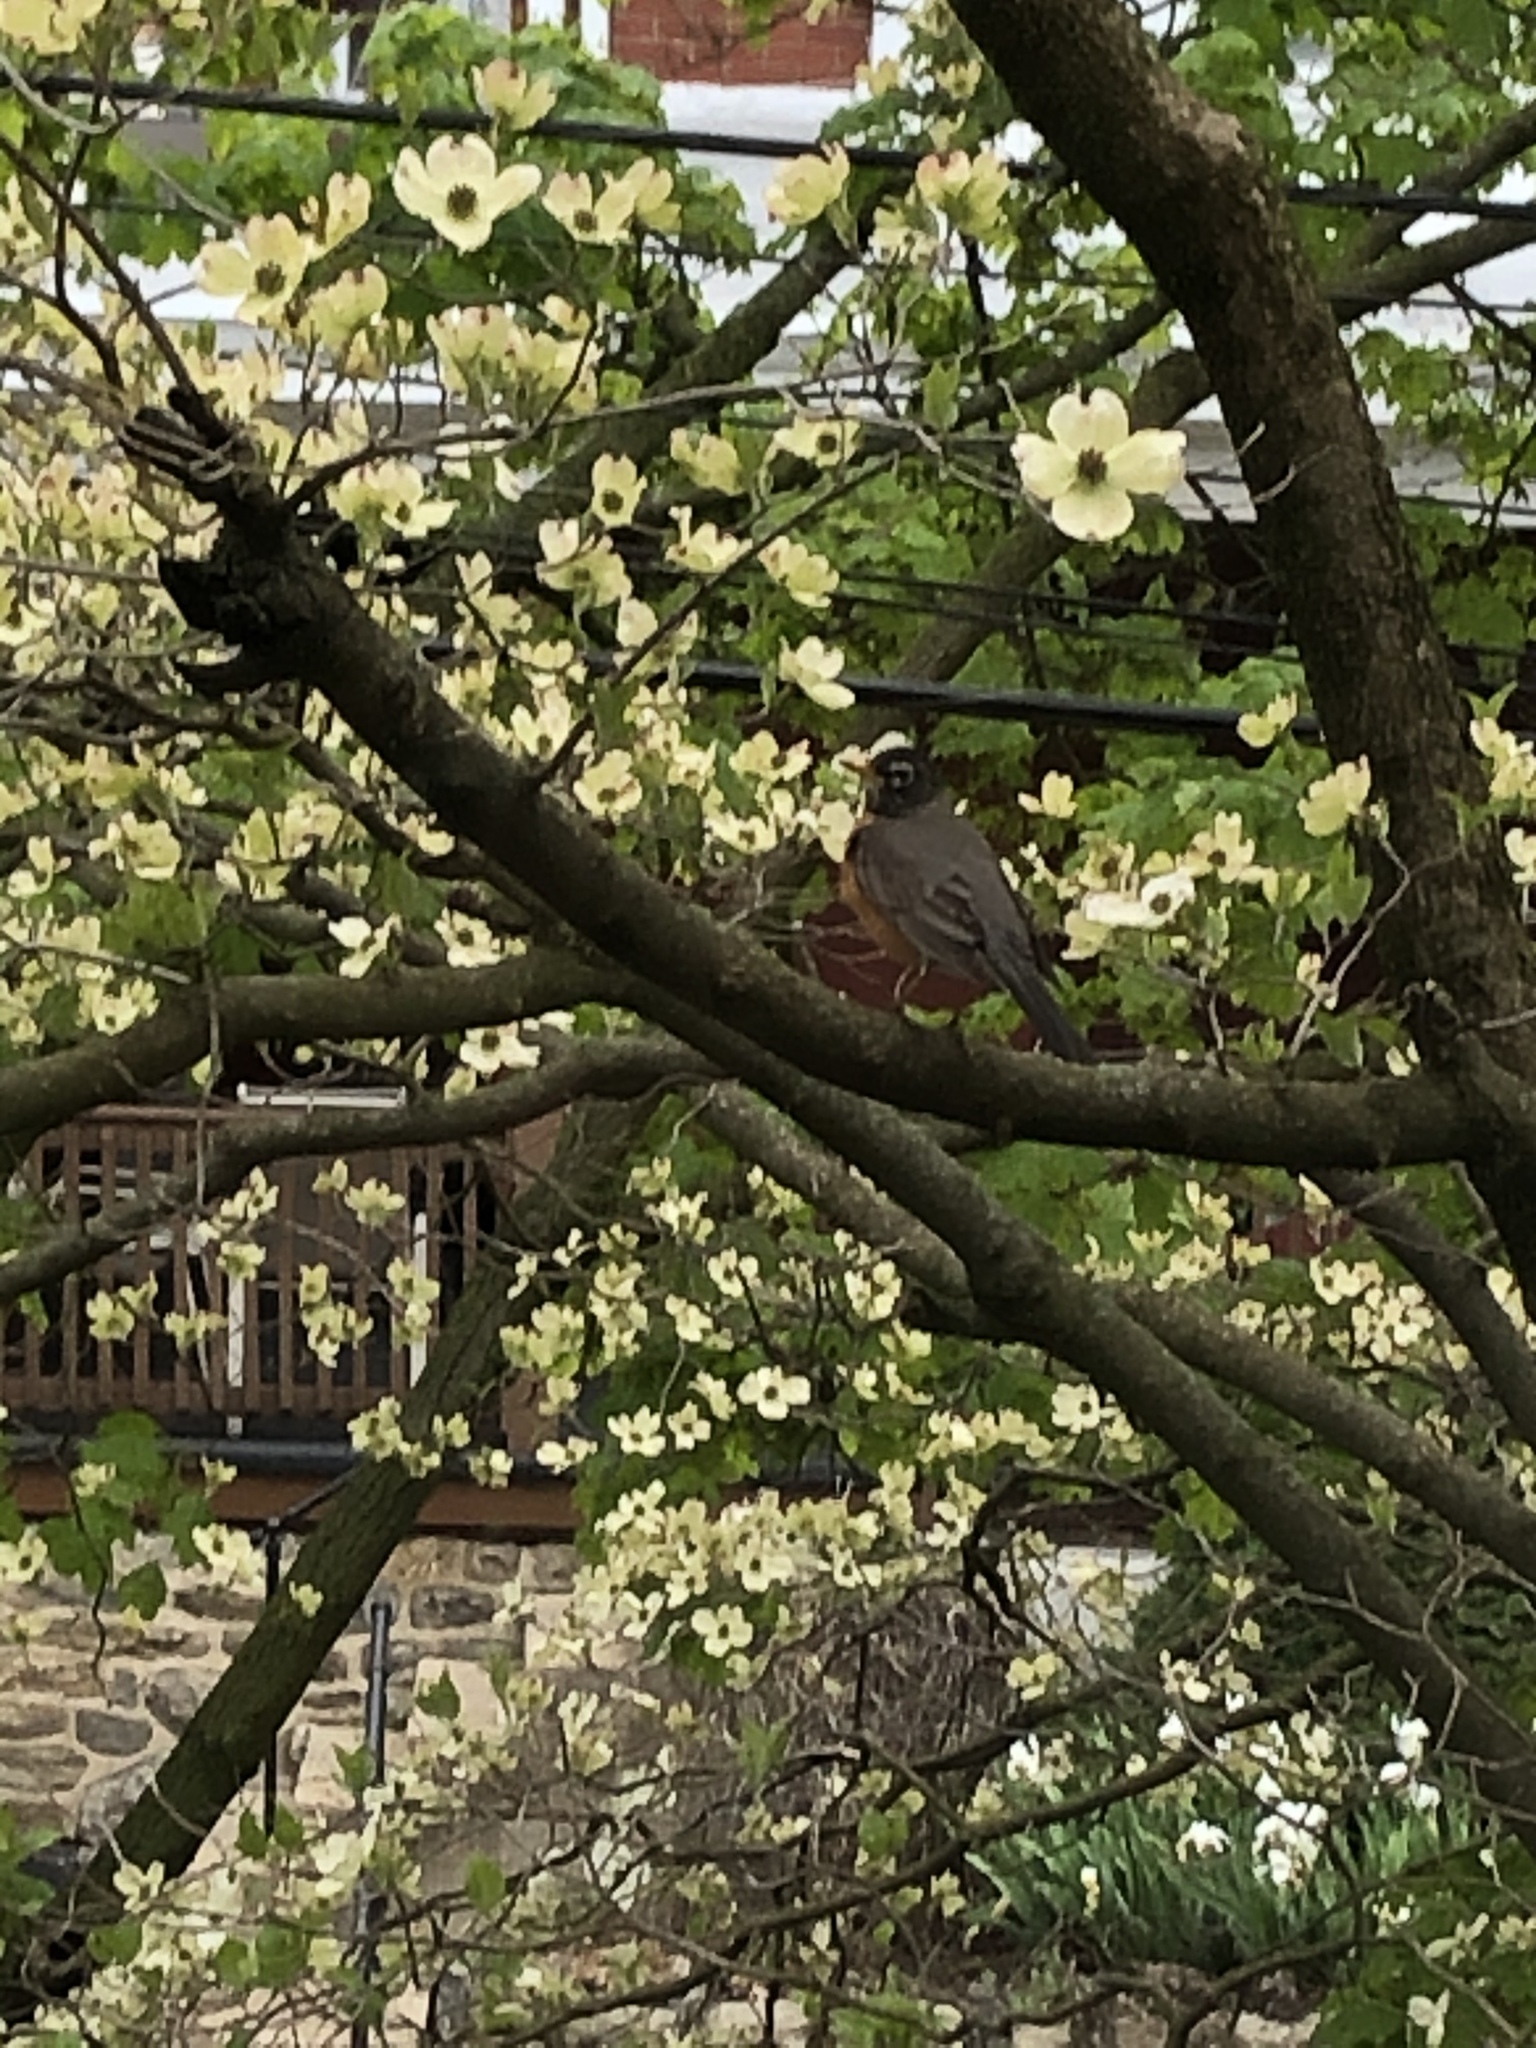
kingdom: Animalia
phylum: Chordata
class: Aves
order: Passeriformes
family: Turdidae
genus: Turdus
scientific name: Turdus migratorius
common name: American robin
